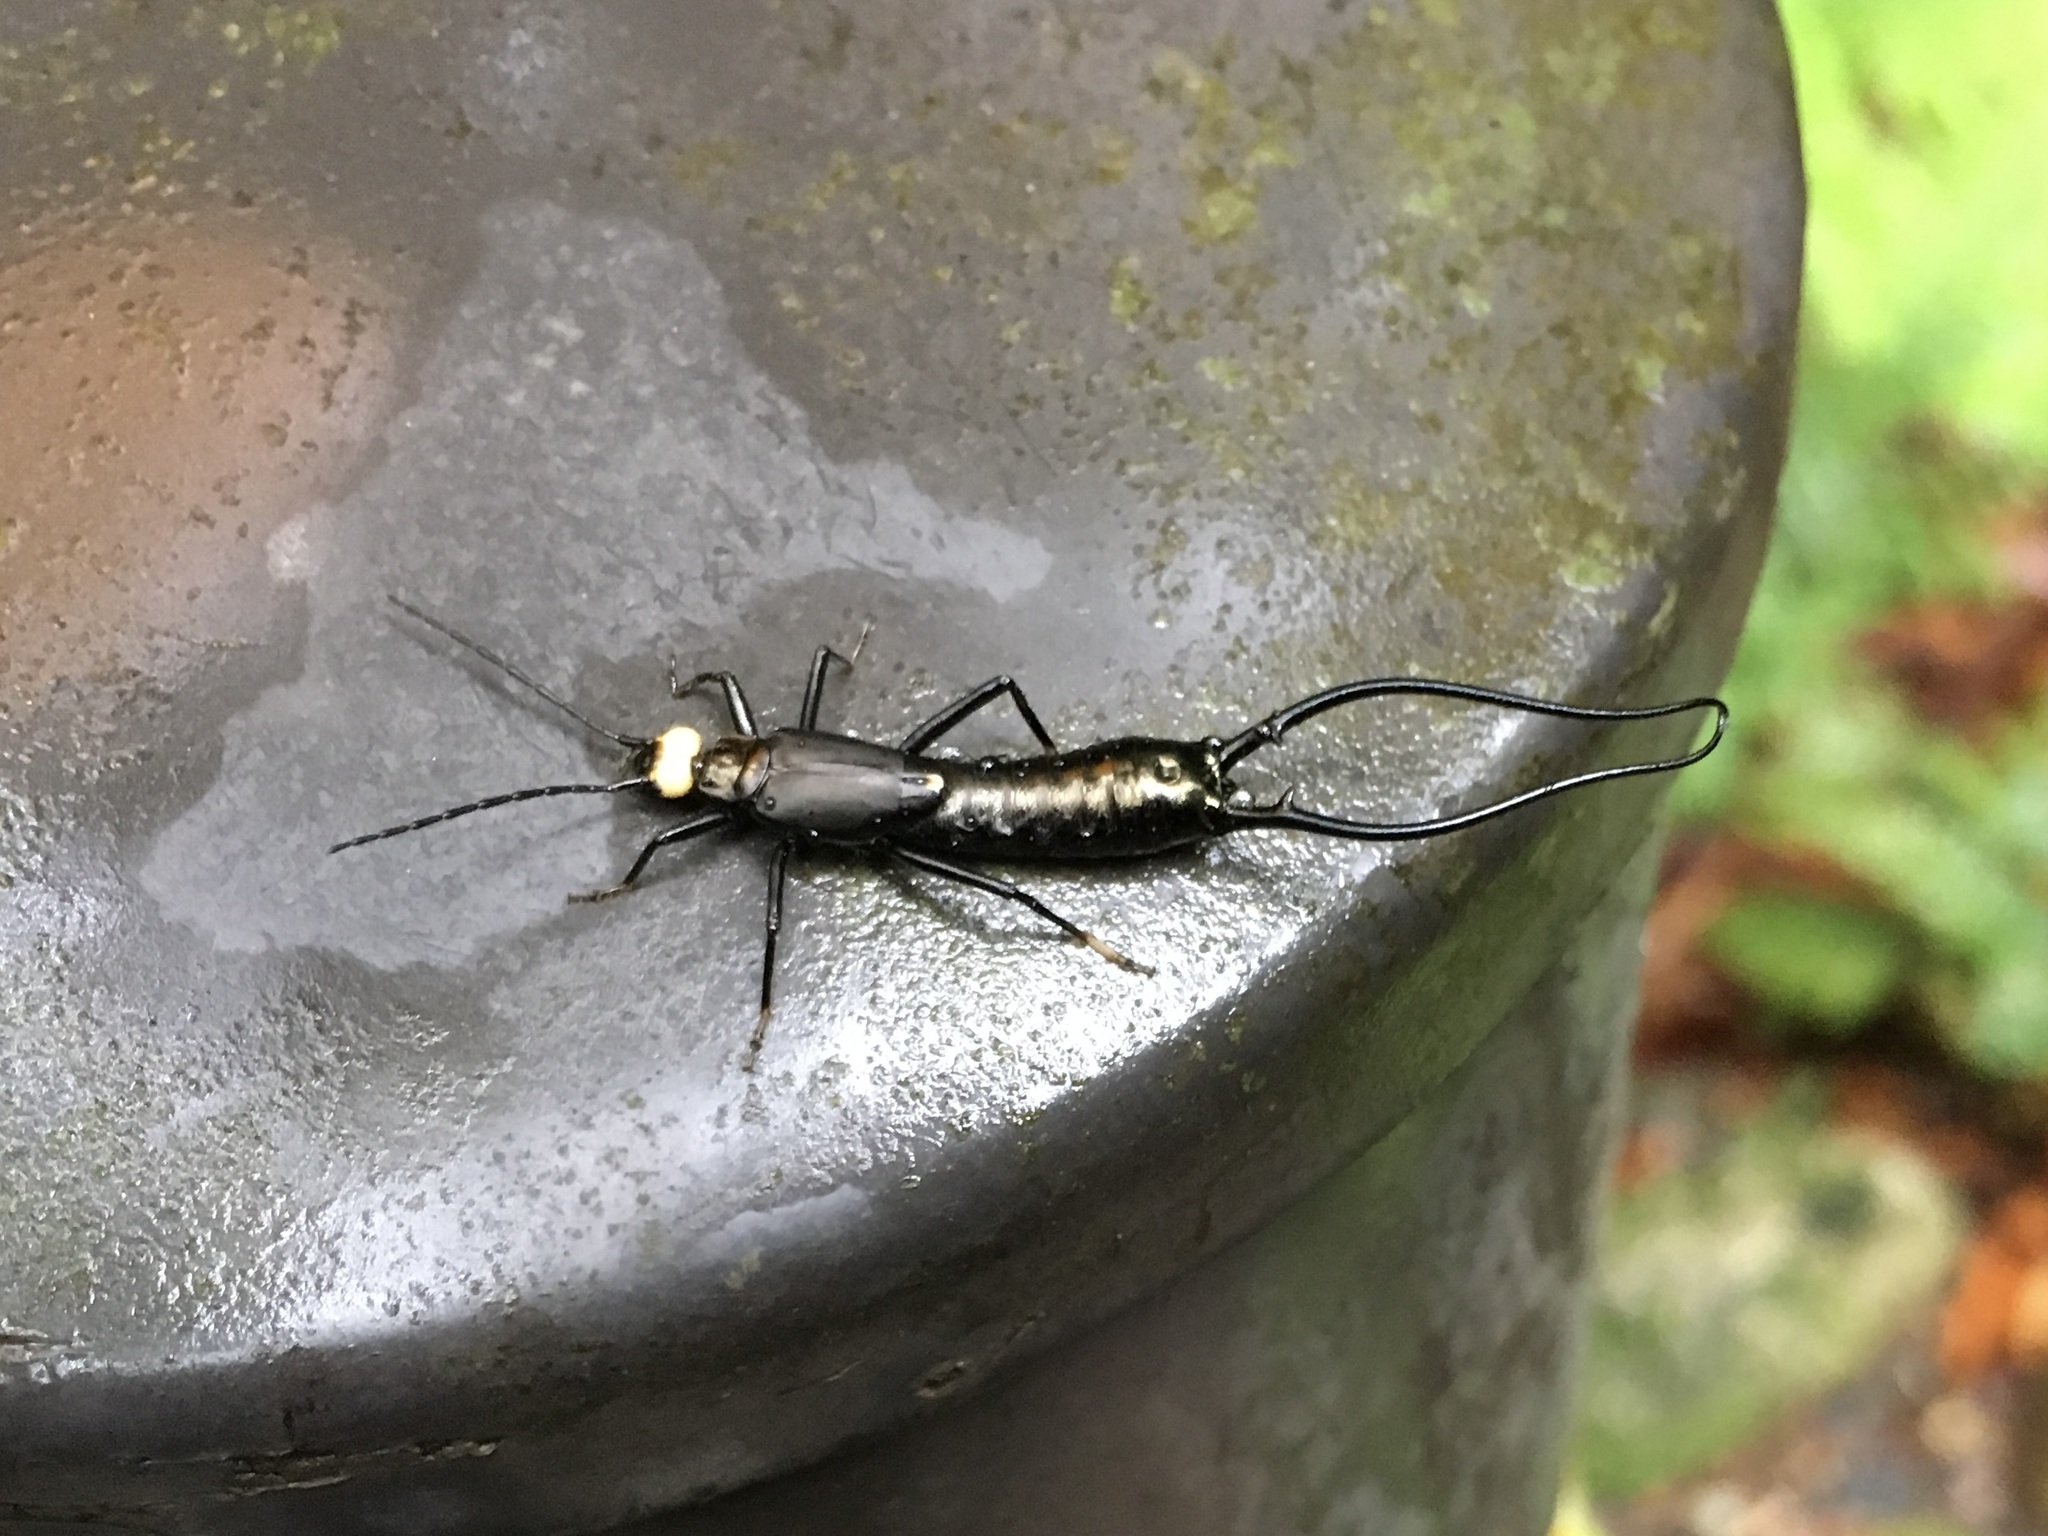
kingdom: Animalia
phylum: Arthropoda
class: Insecta
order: Dermaptera
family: Forficulidae
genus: Paratimomenus
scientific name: Paratimomenus flavocapitata
